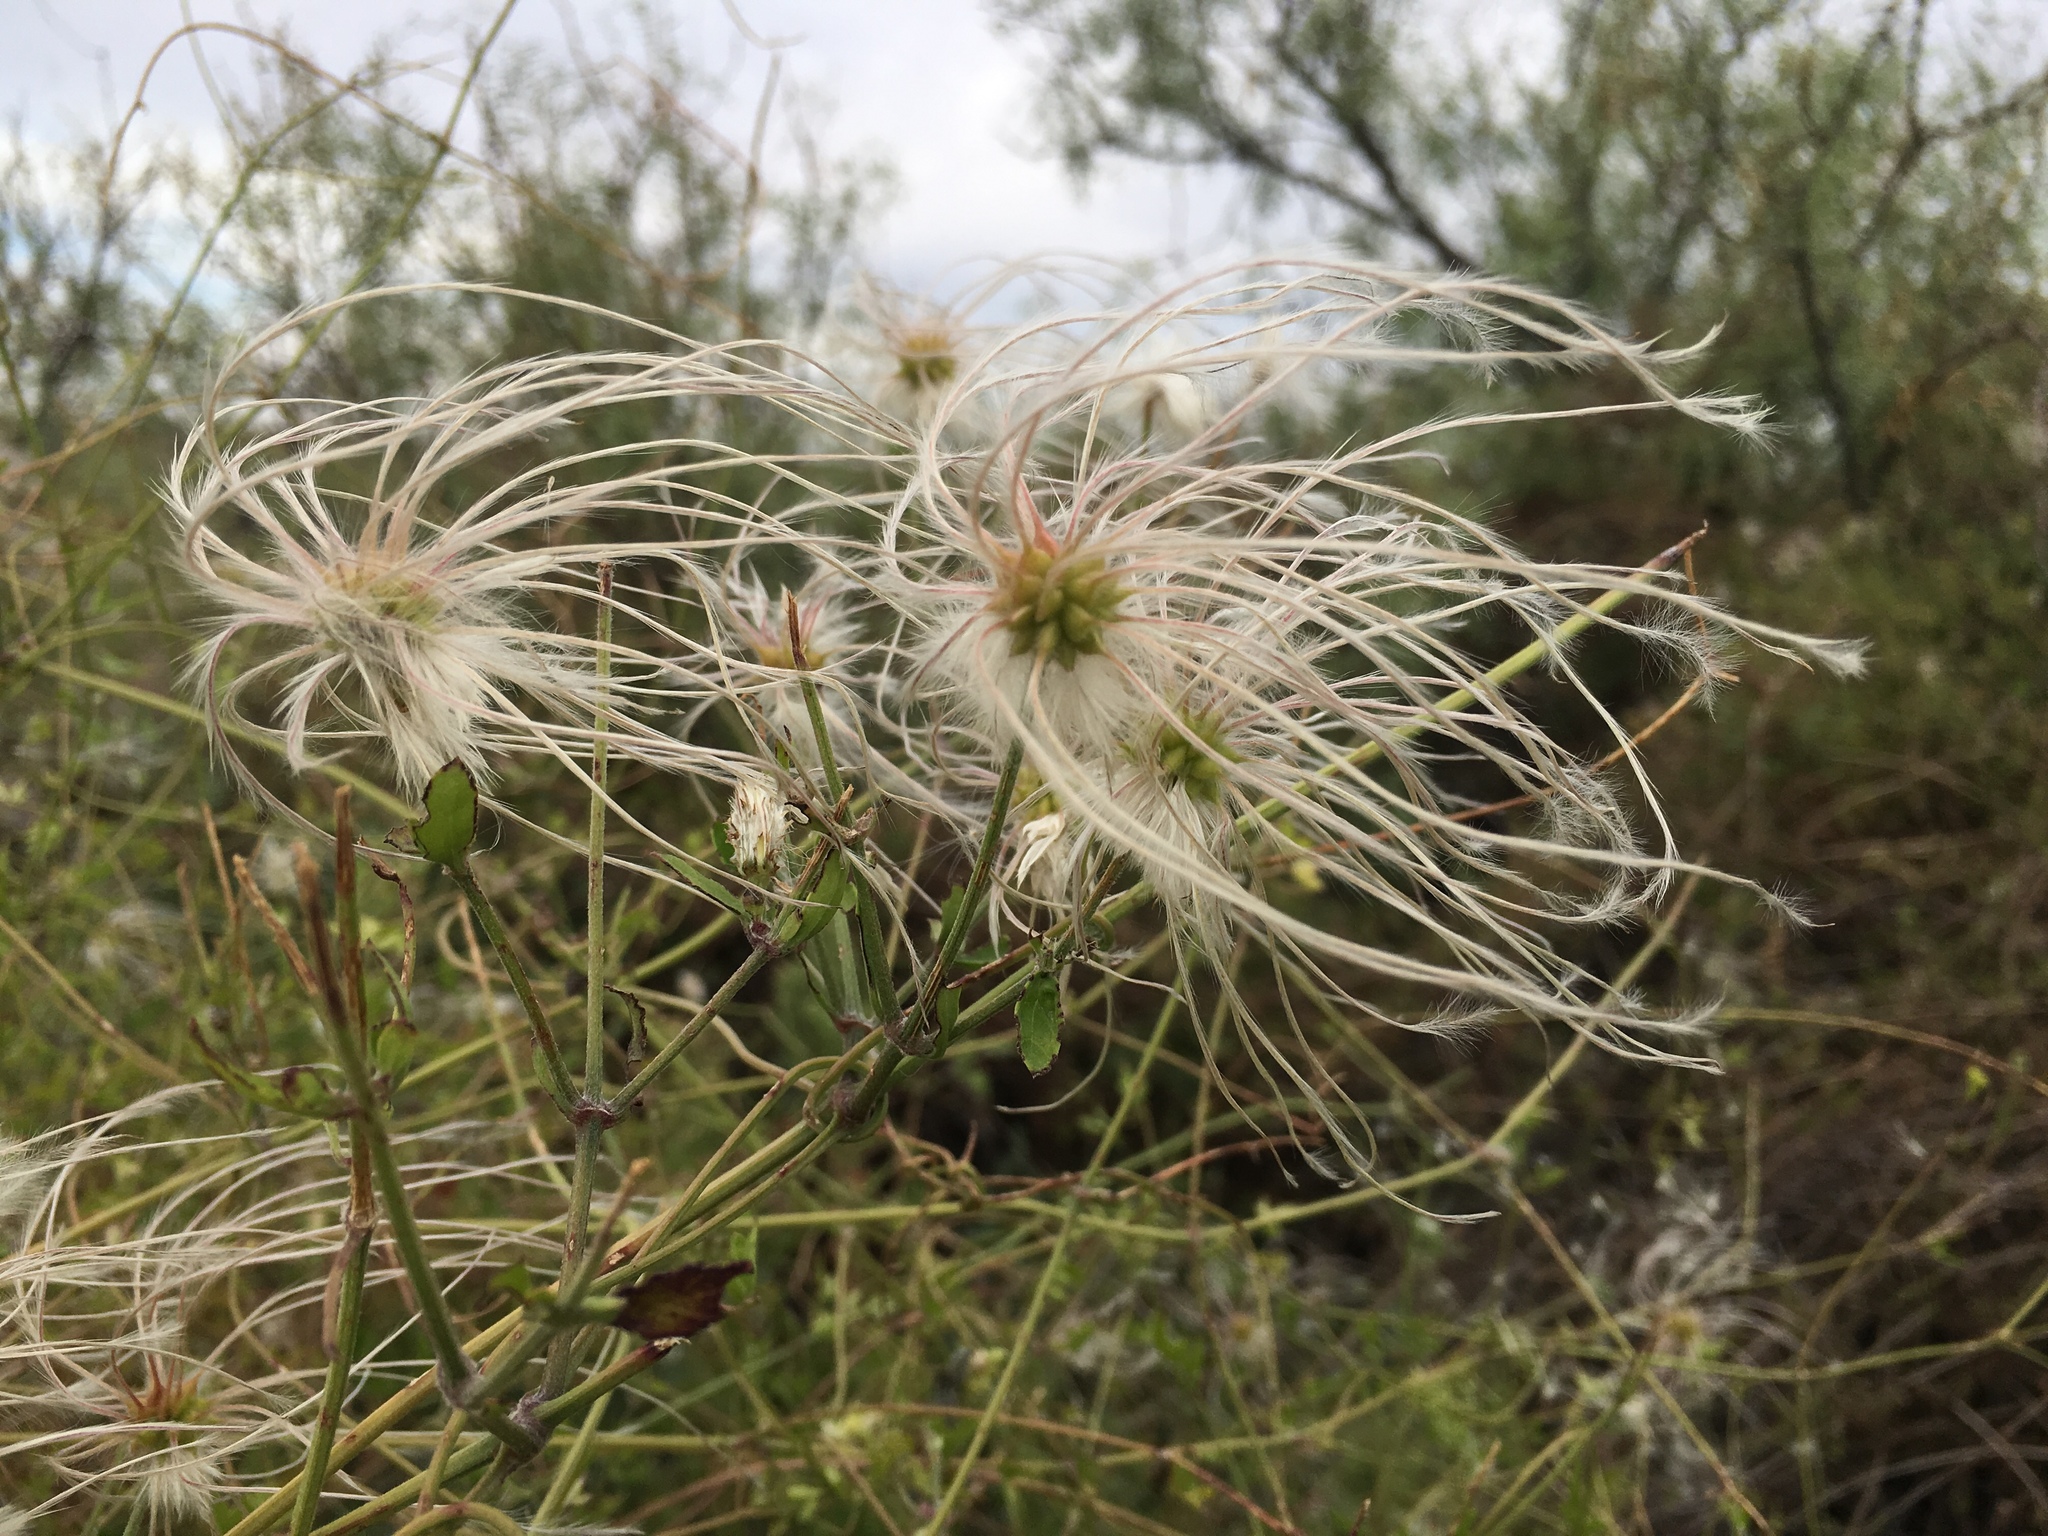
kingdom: Plantae
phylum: Tracheophyta
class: Magnoliopsida
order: Ranunculales
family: Ranunculaceae
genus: Clematis
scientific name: Clematis drummondii
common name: Texas virgin's bower
